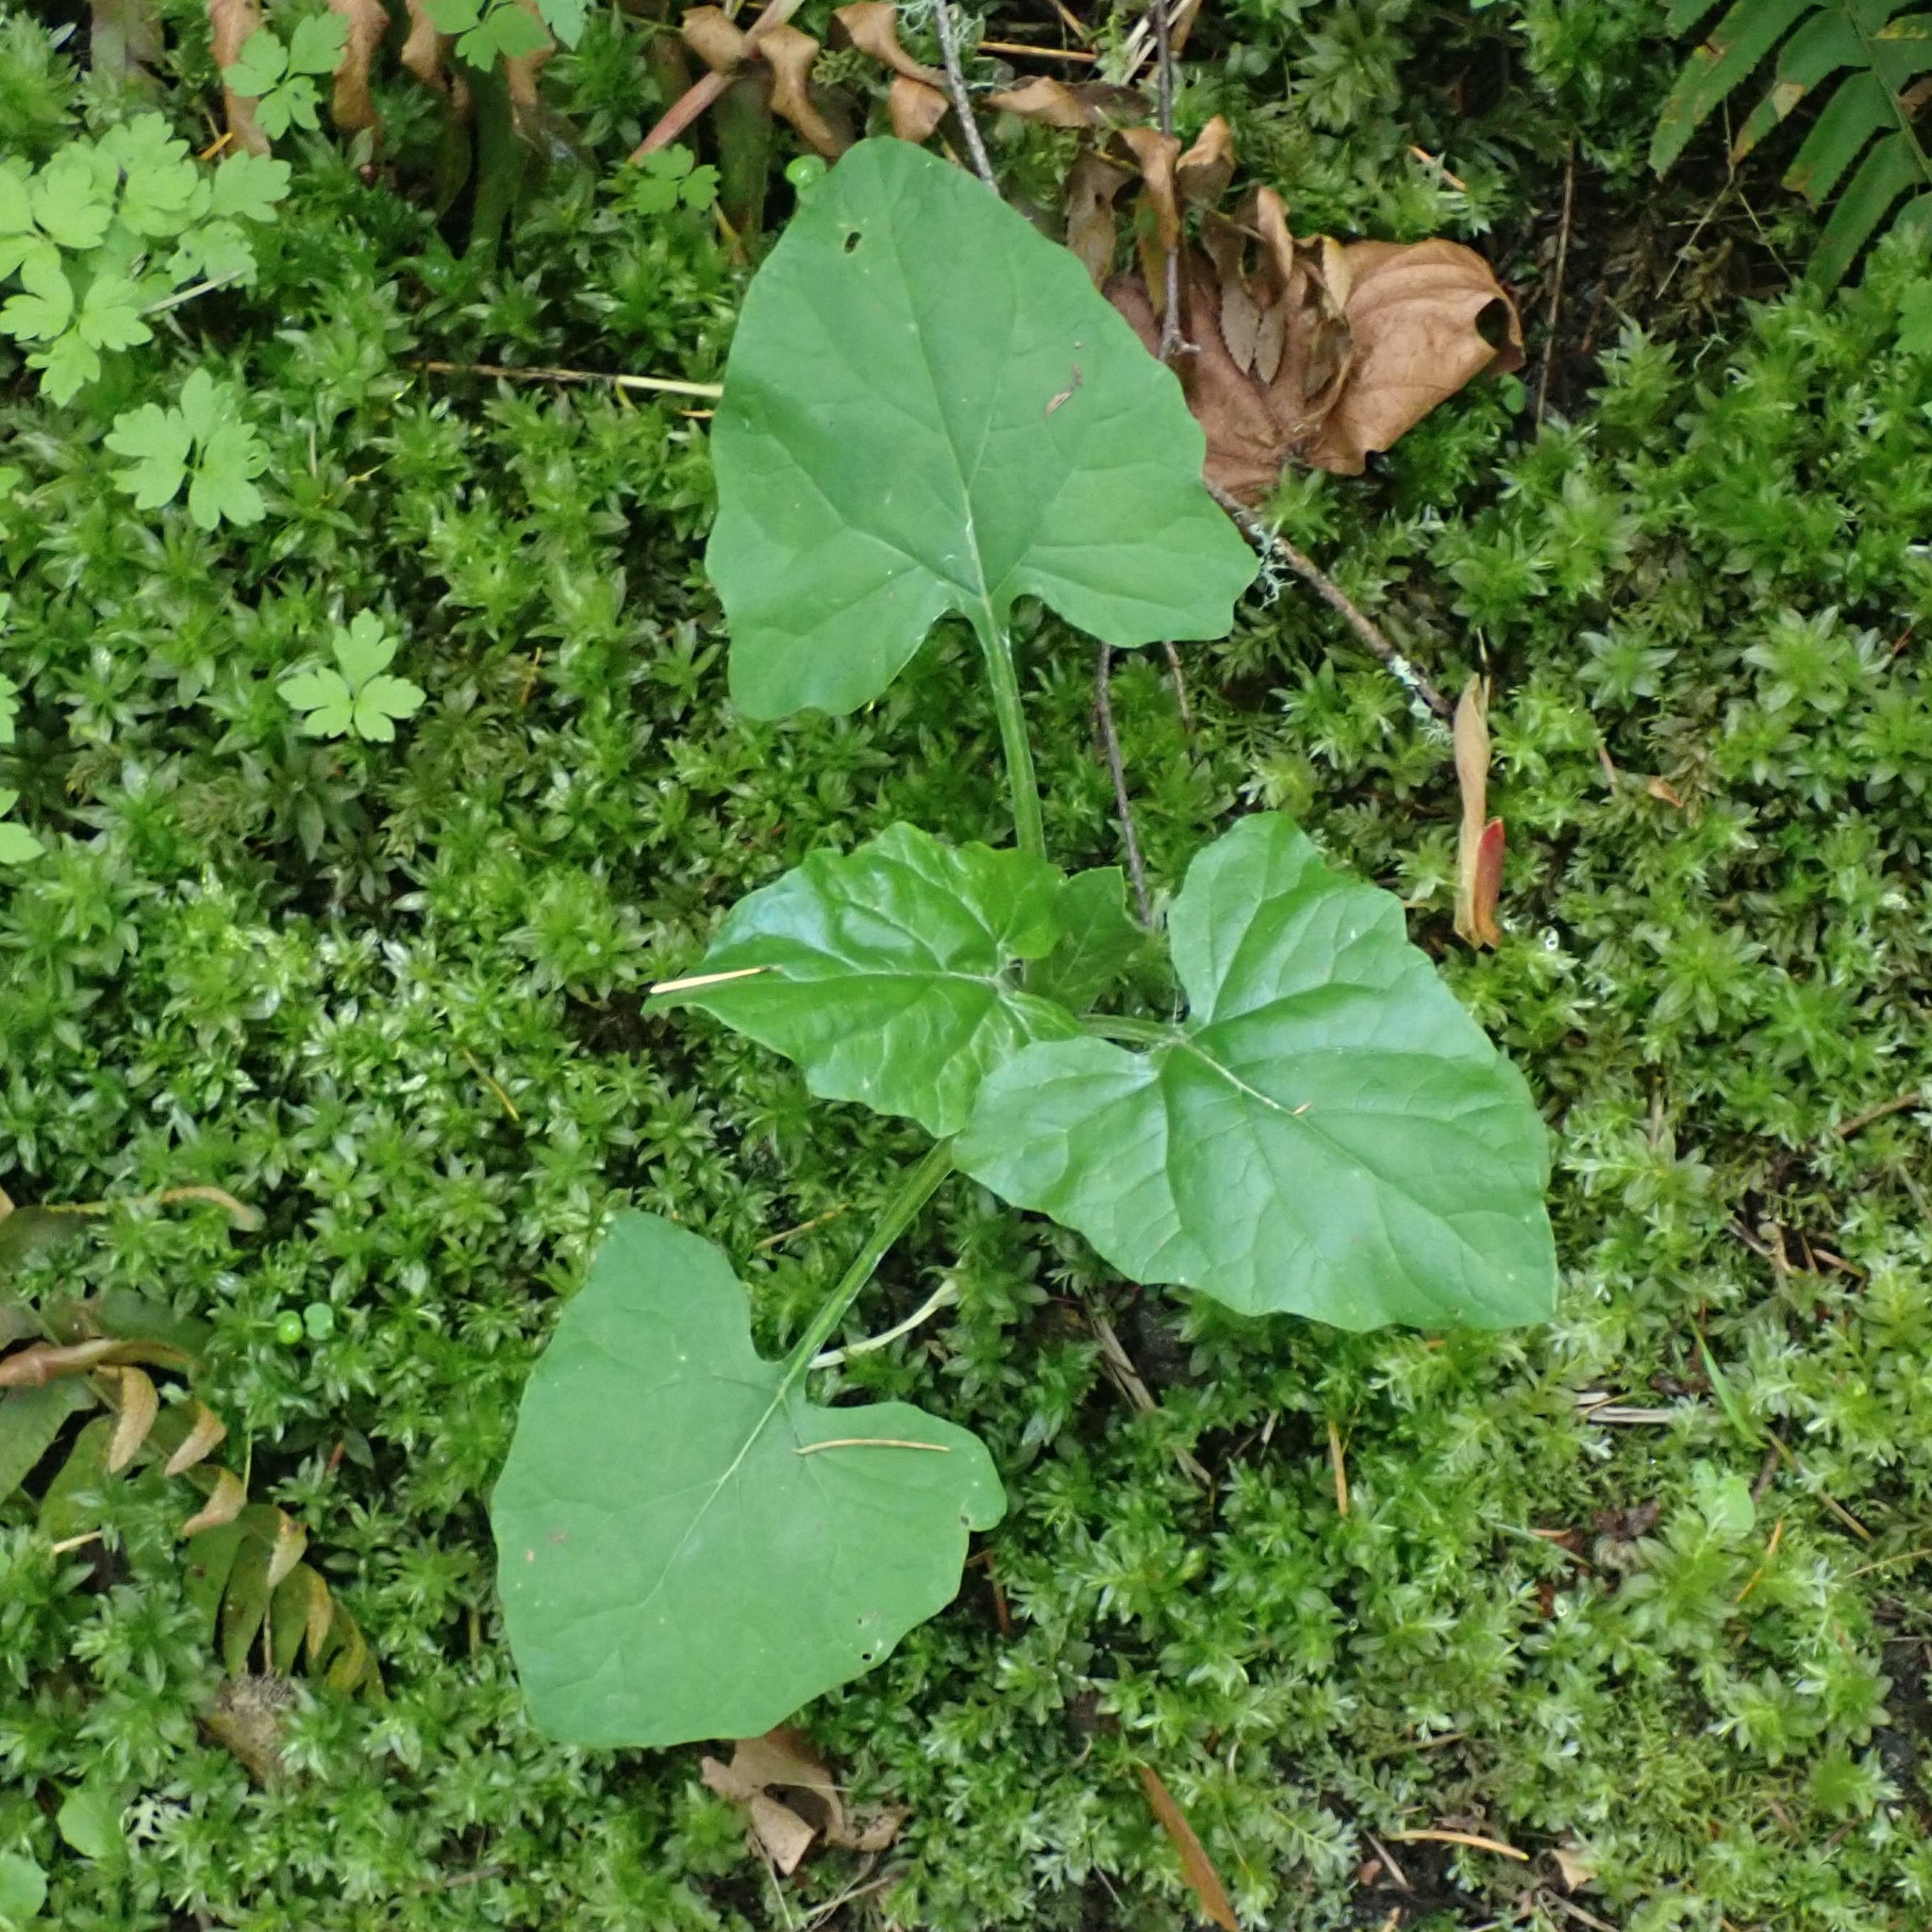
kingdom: Plantae
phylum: Tracheophyta
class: Magnoliopsida
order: Asterales
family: Asteraceae
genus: Adenocaulon
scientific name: Adenocaulon bicolor
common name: Trailplant
